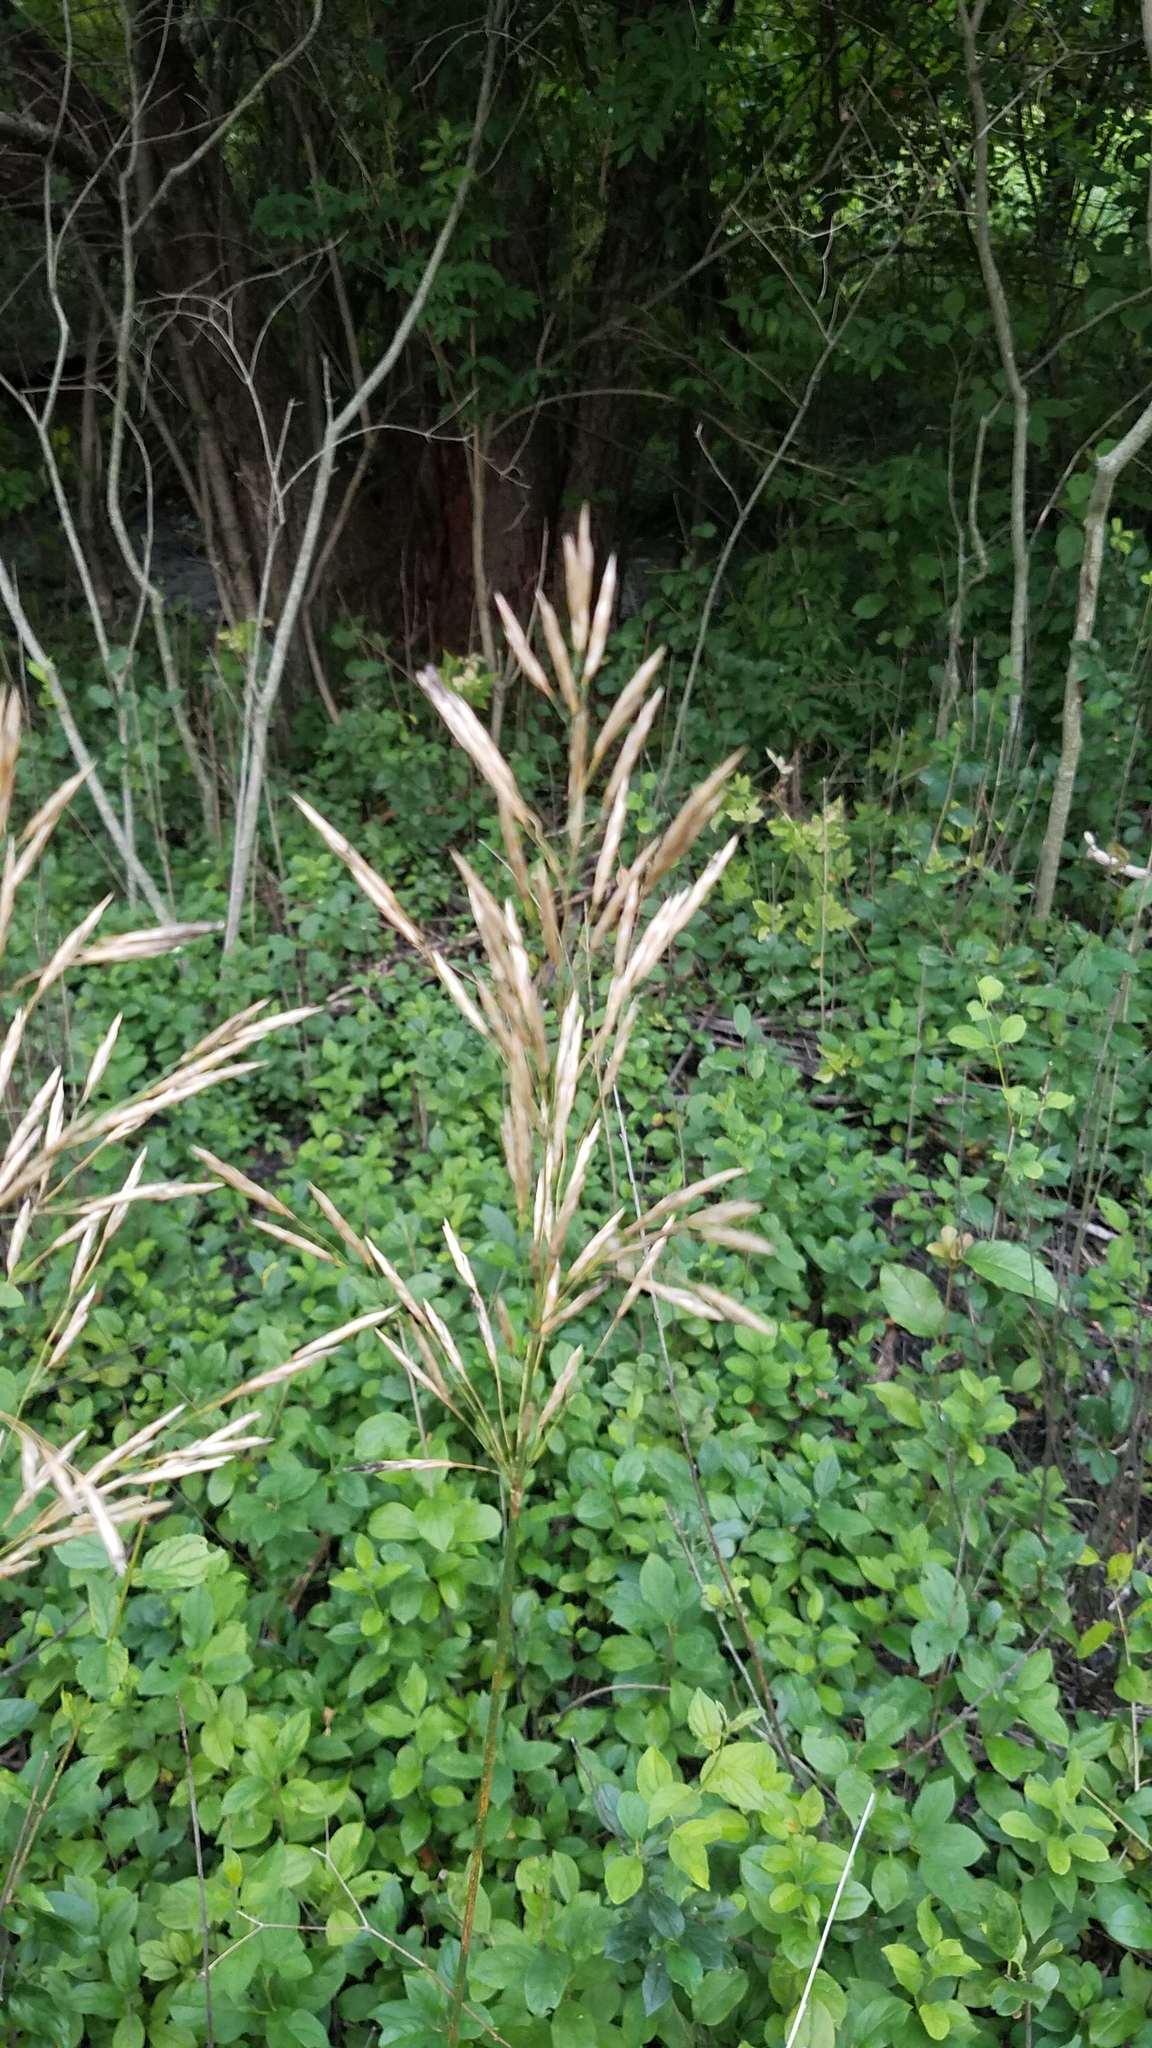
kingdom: Plantae
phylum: Tracheophyta
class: Liliopsida
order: Poales
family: Poaceae
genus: Bromus
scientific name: Bromus inermis
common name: Smooth brome
